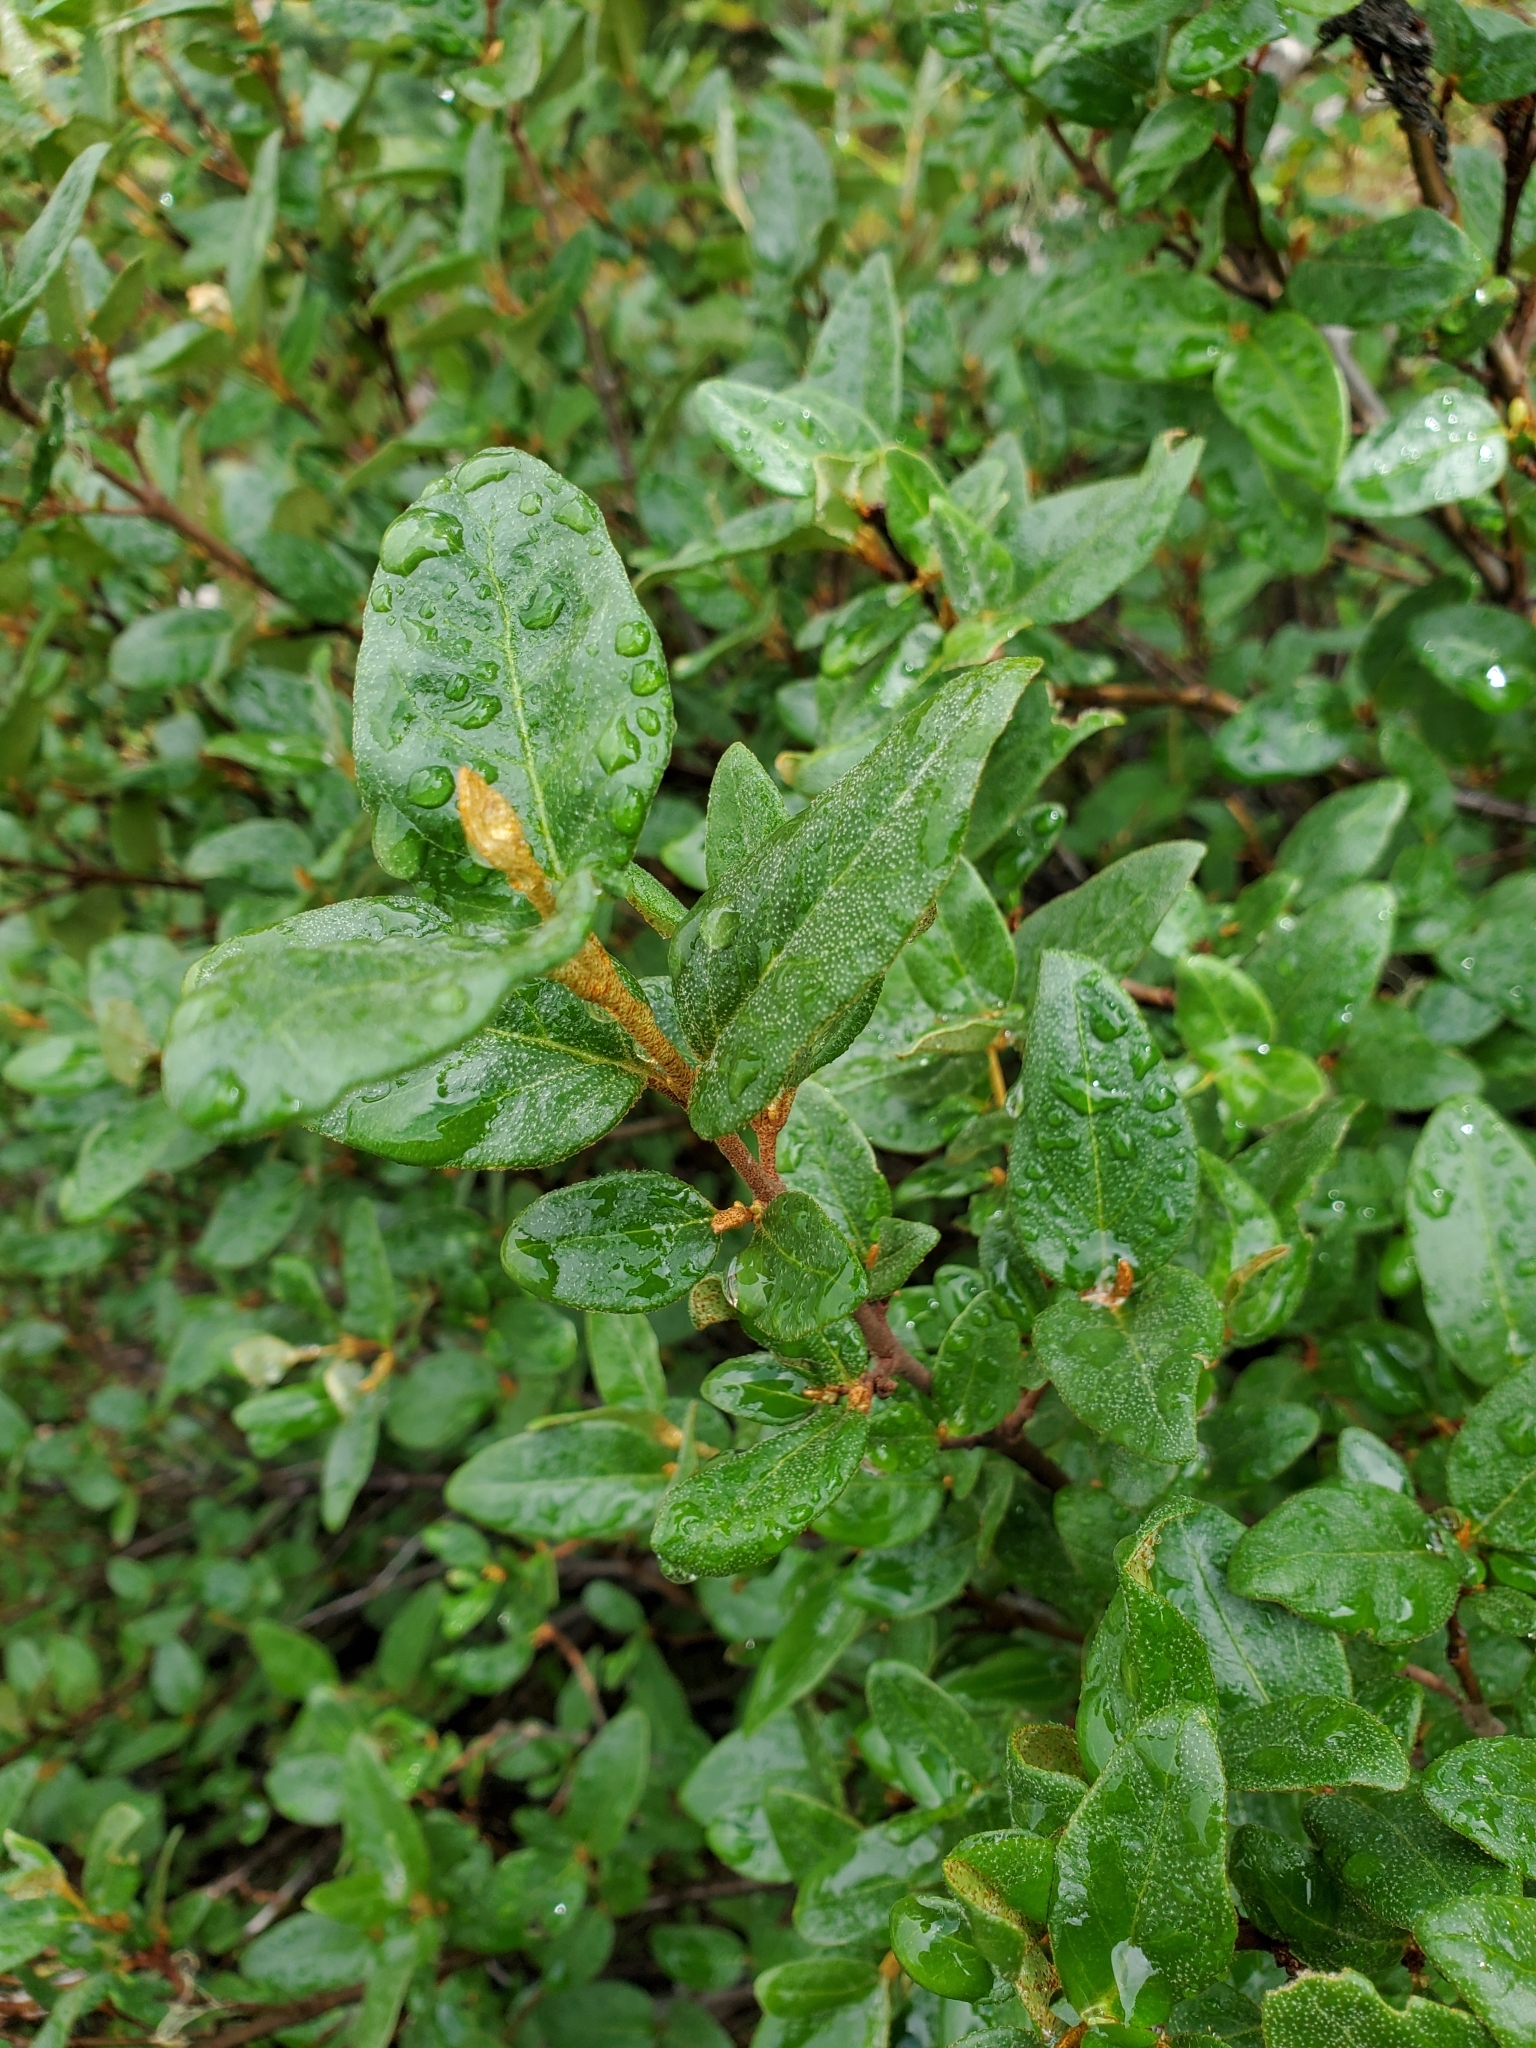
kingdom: Plantae
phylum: Tracheophyta
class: Magnoliopsida
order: Rosales
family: Elaeagnaceae
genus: Shepherdia
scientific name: Shepherdia canadensis
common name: Soapberry
